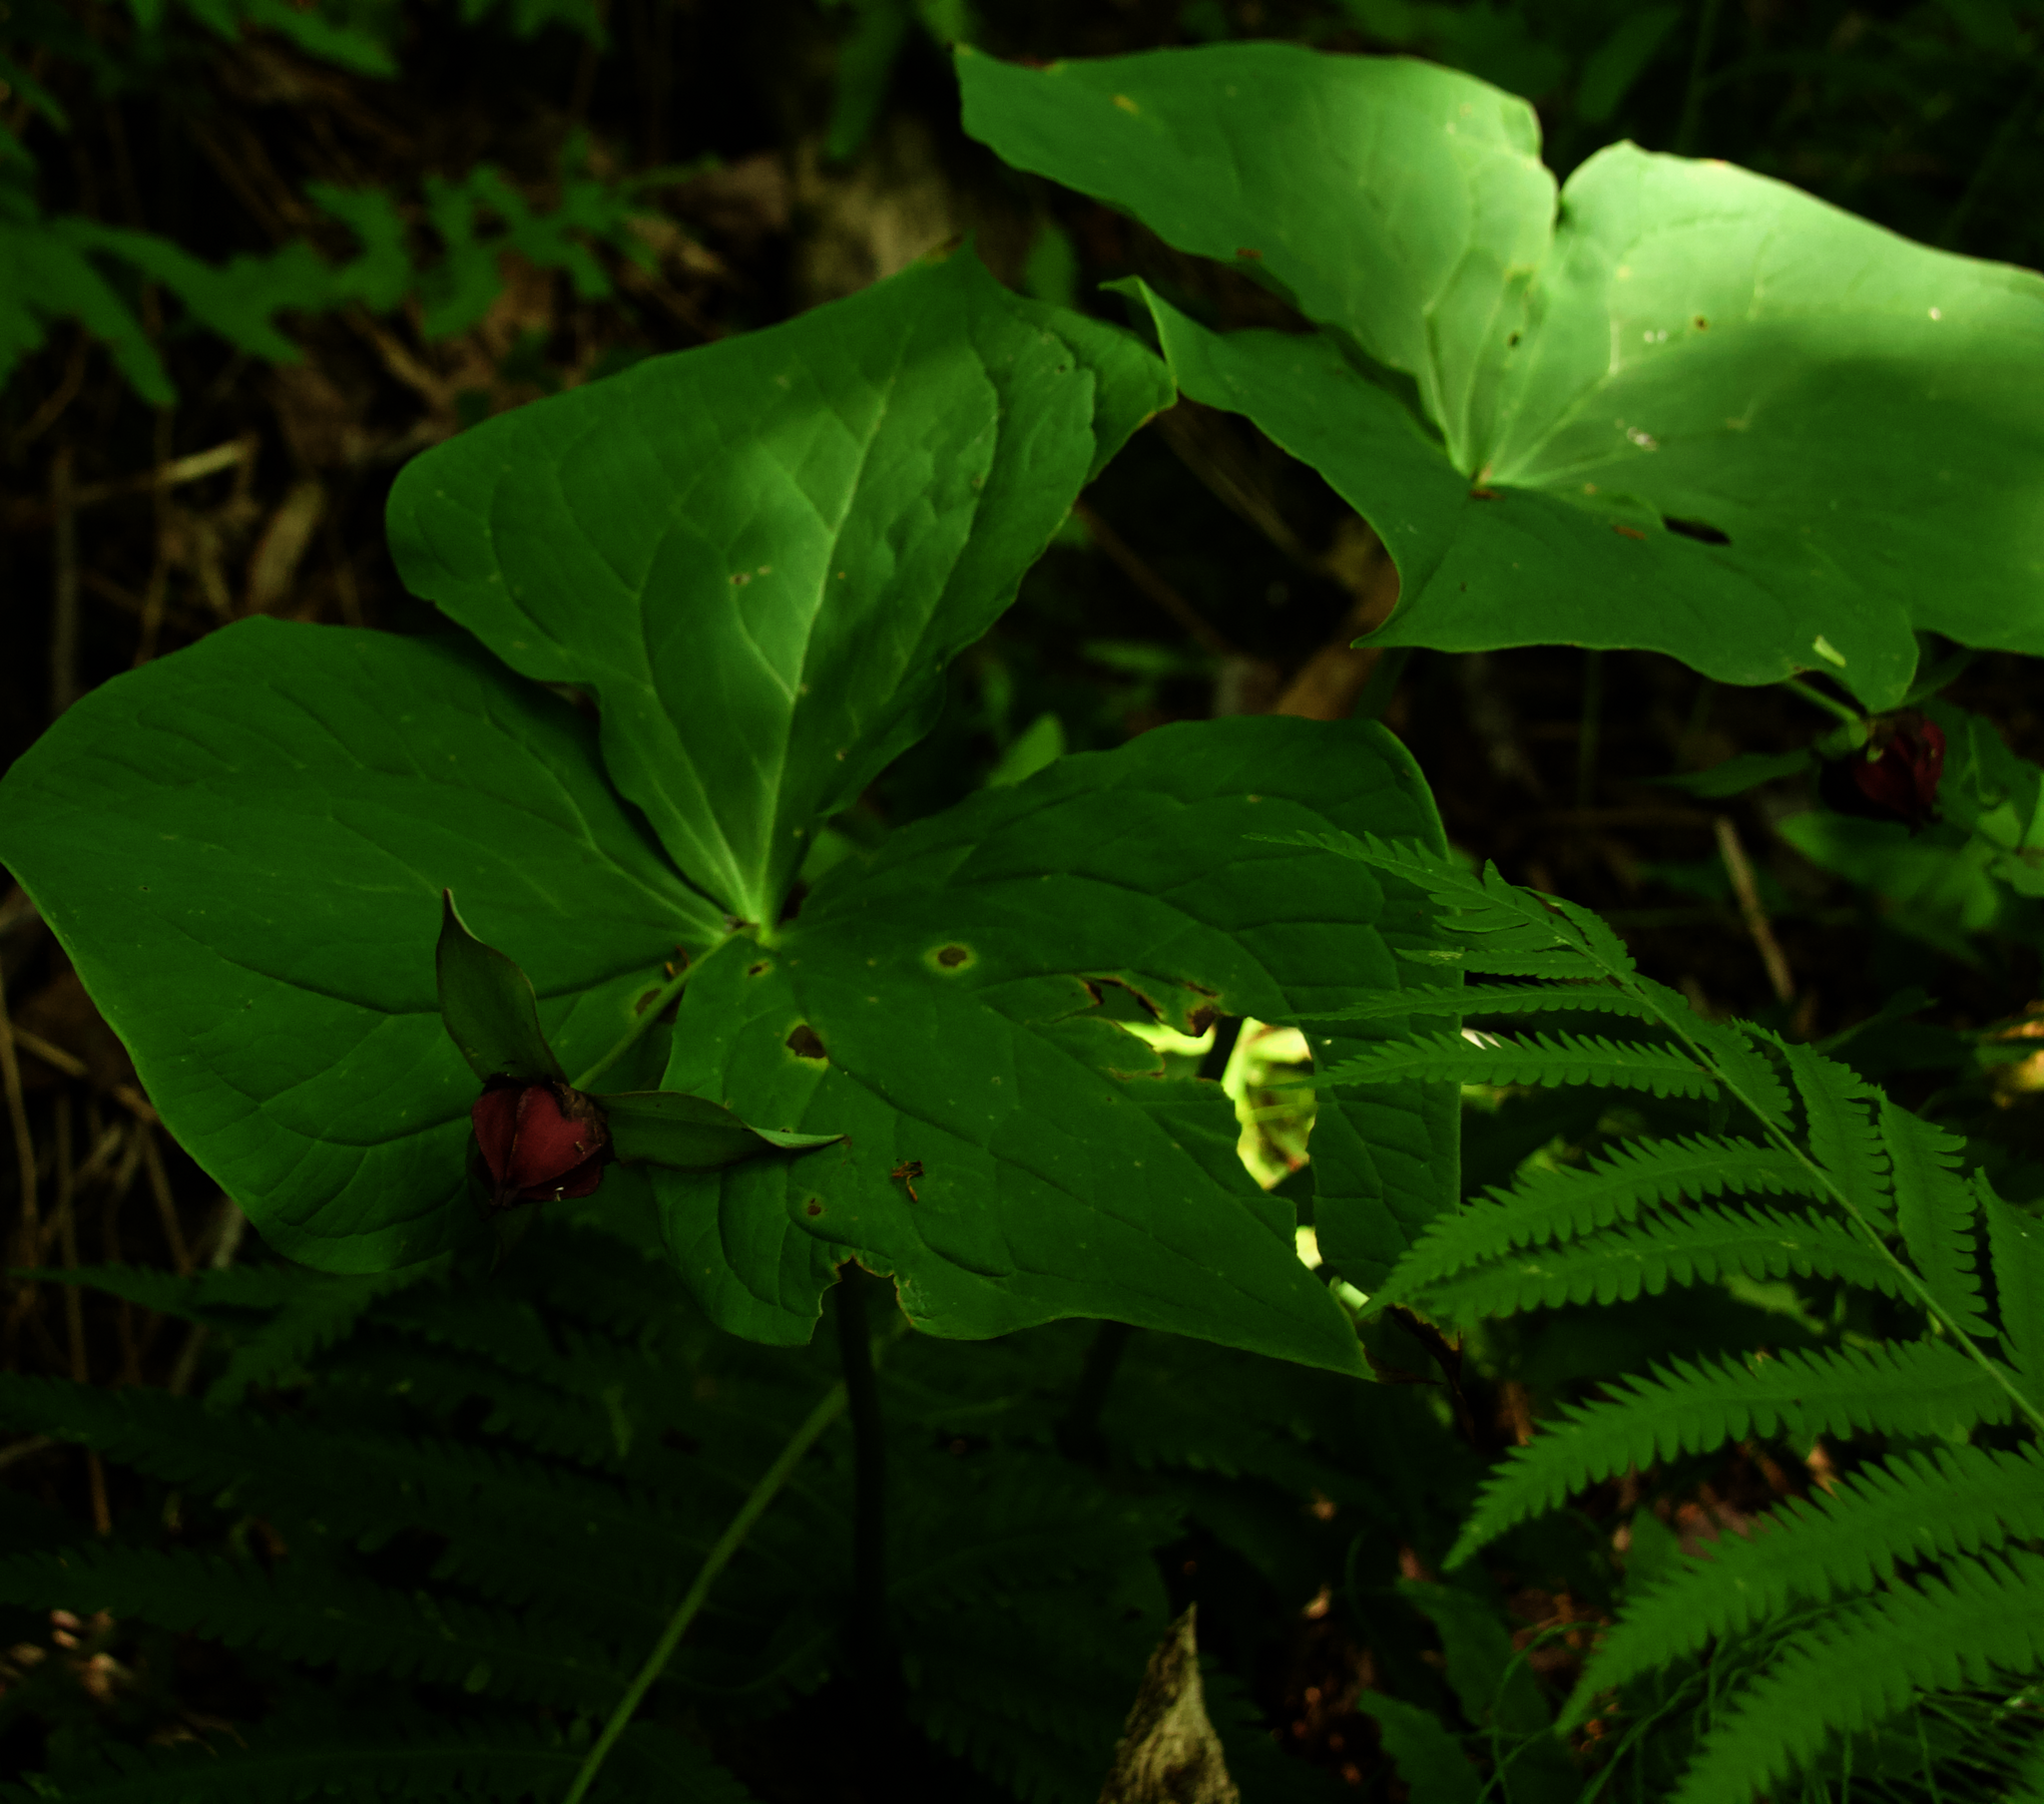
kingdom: Plantae
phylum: Tracheophyta
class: Liliopsida
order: Liliales
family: Melanthiaceae
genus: Trillium
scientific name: Trillium erectum
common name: Purple trillium
